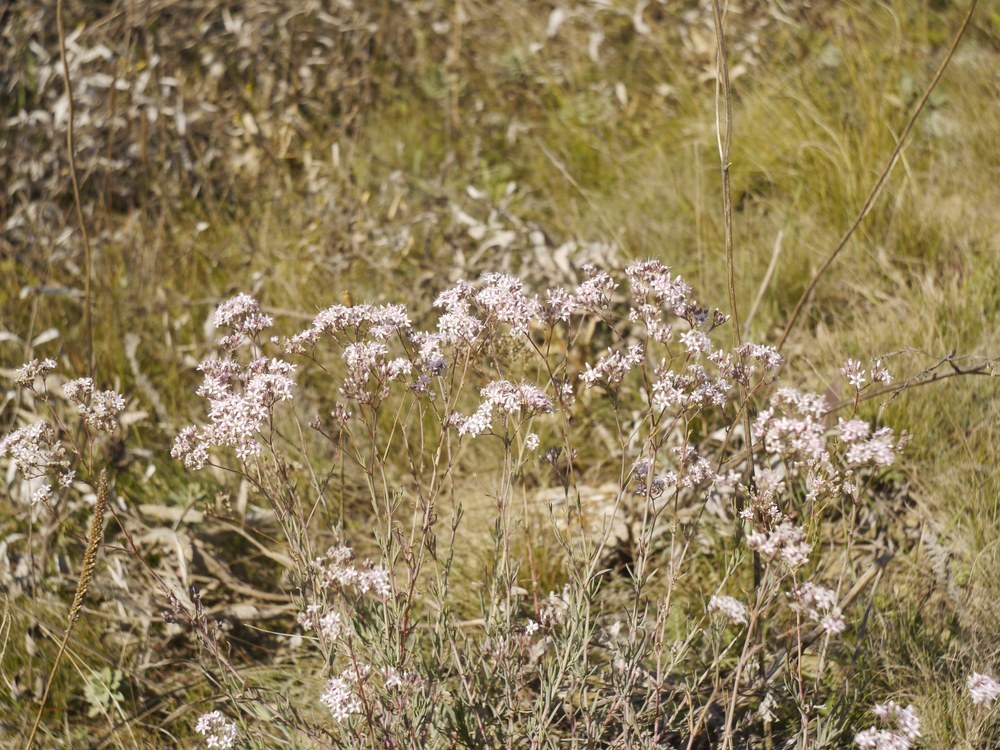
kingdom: Plantae
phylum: Tracheophyta
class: Magnoliopsida
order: Caryophyllales
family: Caryophyllaceae
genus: Gypsophila
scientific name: Gypsophila collina
